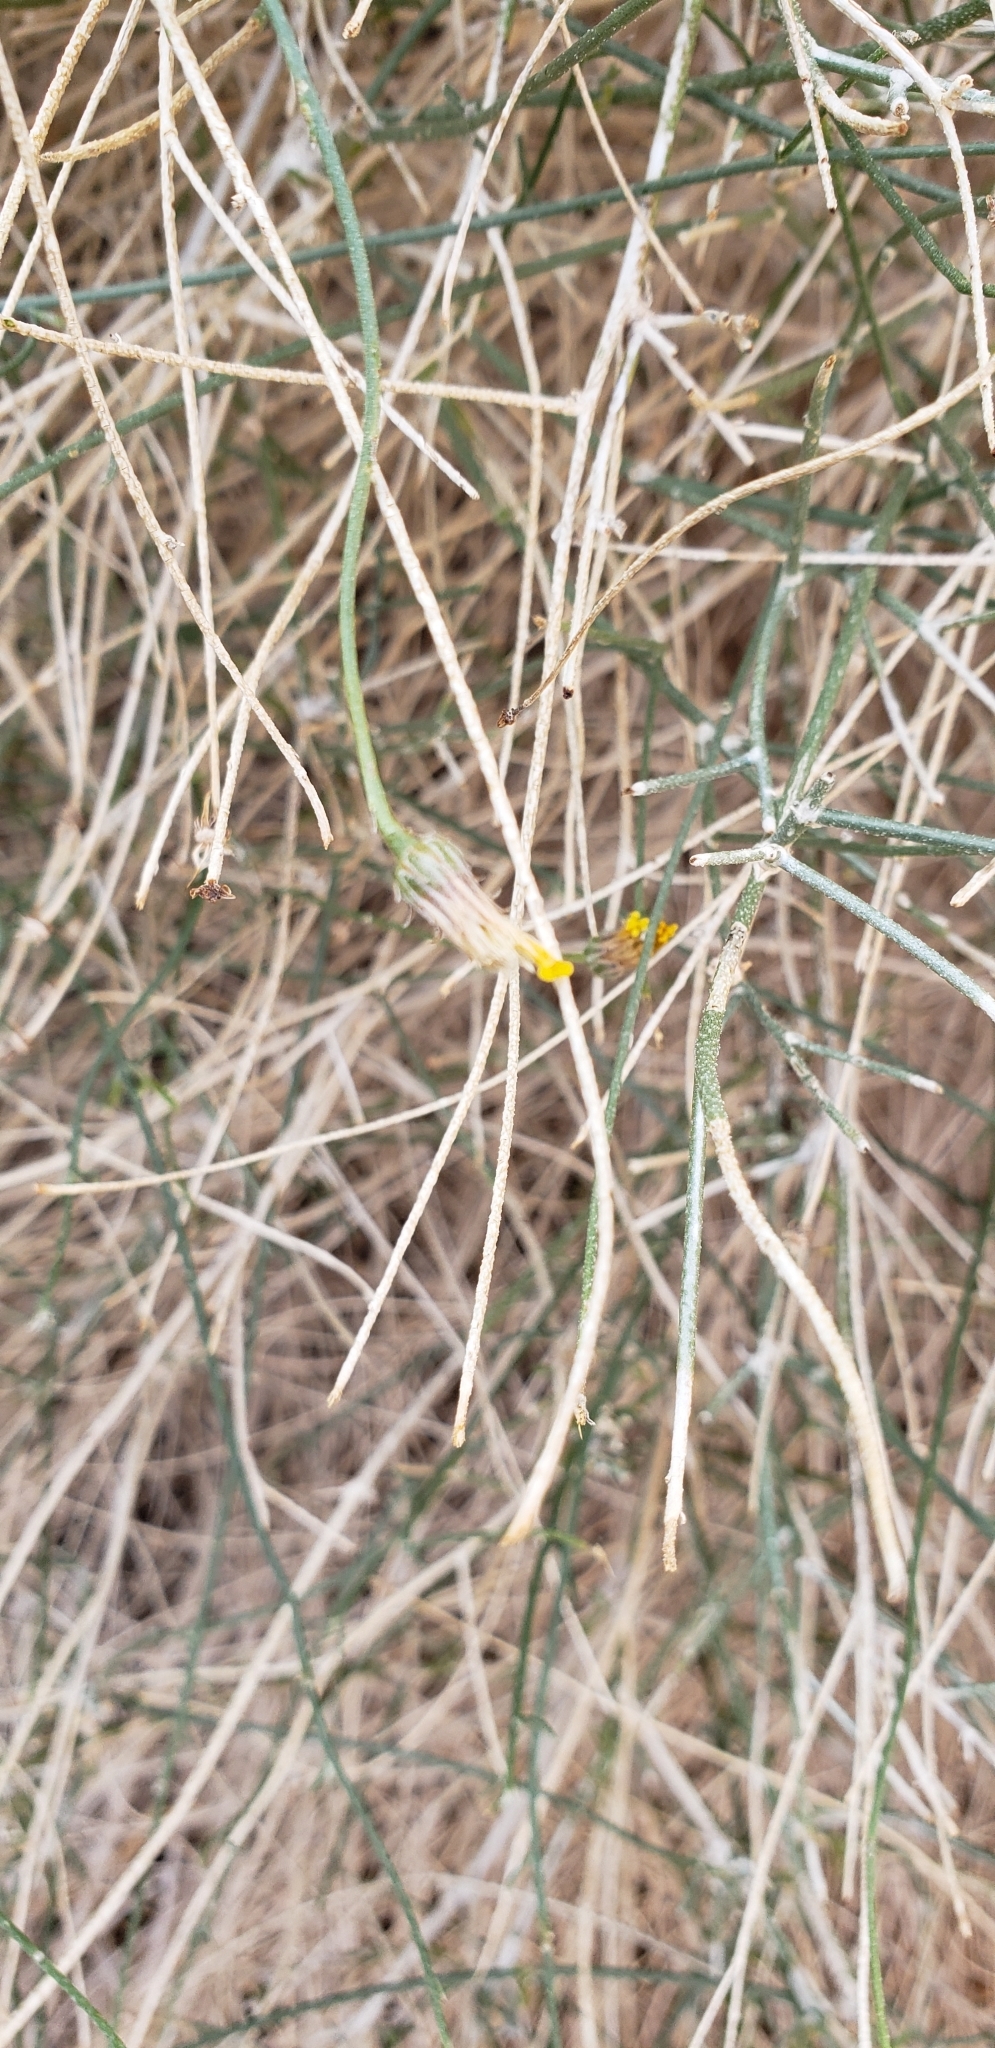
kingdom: Plantae
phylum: Tracheophyta
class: Magnoliopsida
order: Asterales
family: Asteraceae
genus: Bebbia
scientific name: Bebbia juncea
